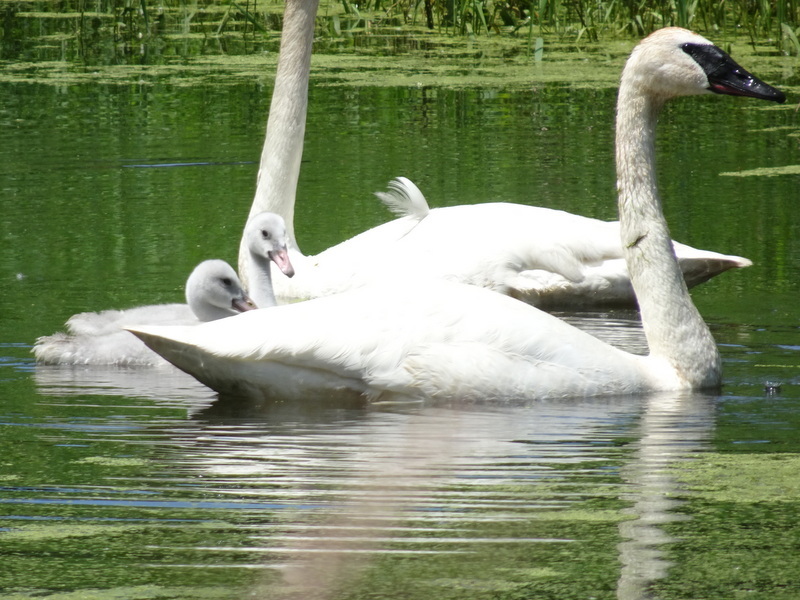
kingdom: Animalia
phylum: Chordata
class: Aves
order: Anseriformes
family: Anatidae
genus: Cygnus
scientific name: Cygnus buccinator
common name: Trumpeter swan
